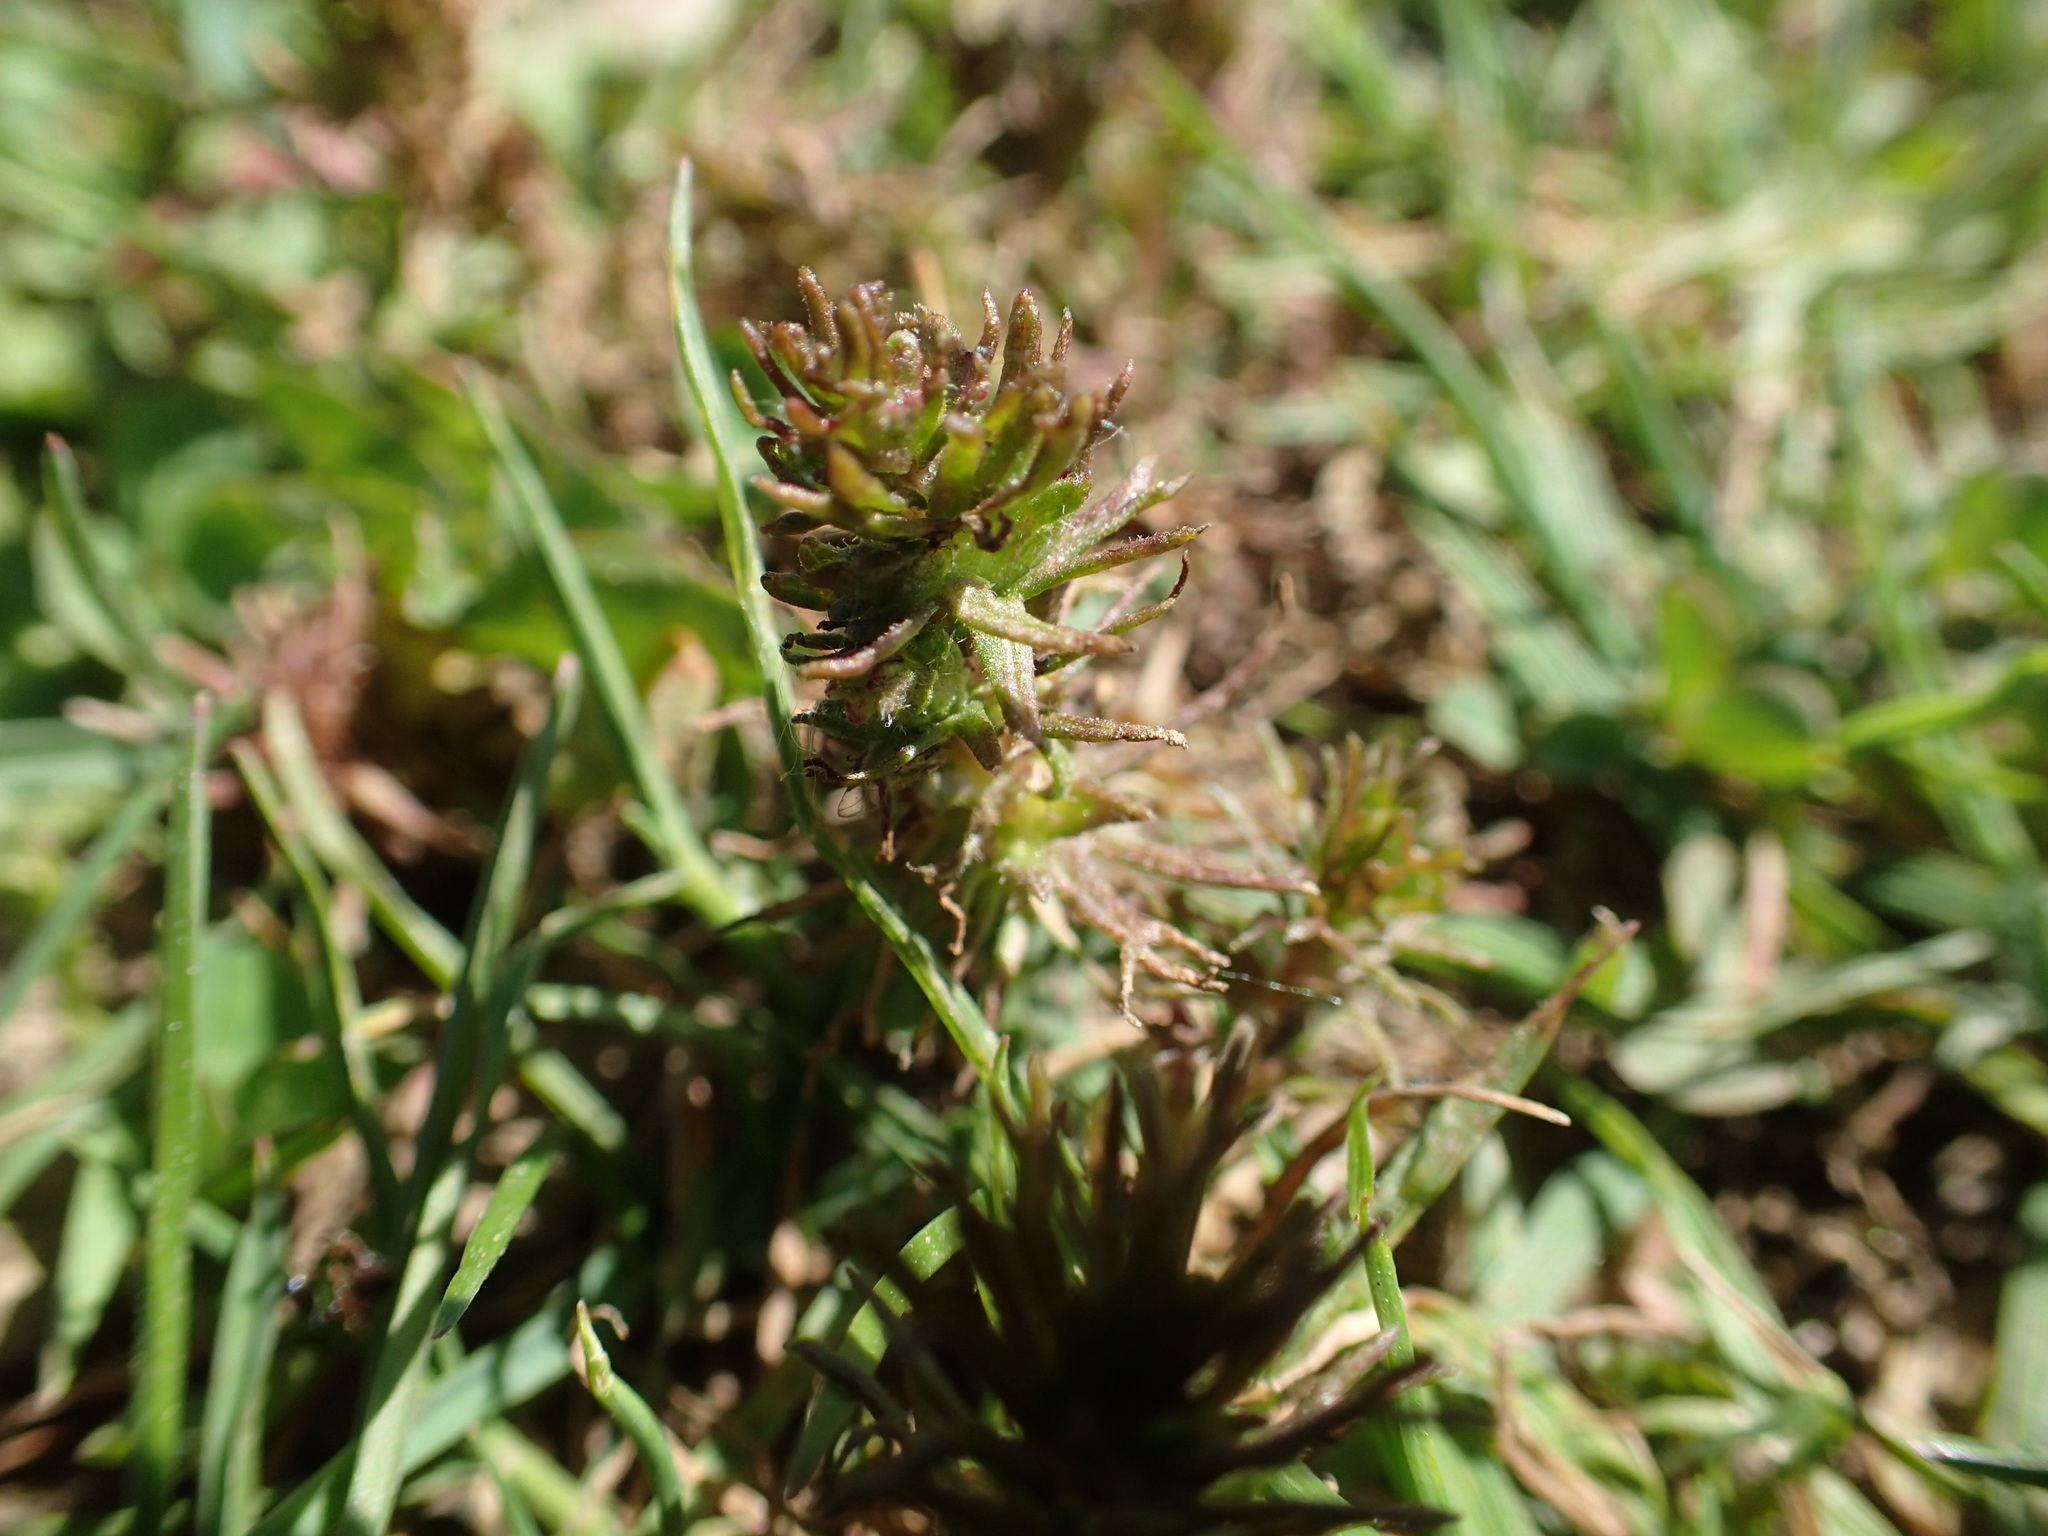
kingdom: Plantae
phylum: Tracheophyta
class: Magnoliopsida
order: Lamiales
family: Orobanchaceae
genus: Triphysaria
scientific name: Triphysaria pusilla
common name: Dwarf false owl-clover
